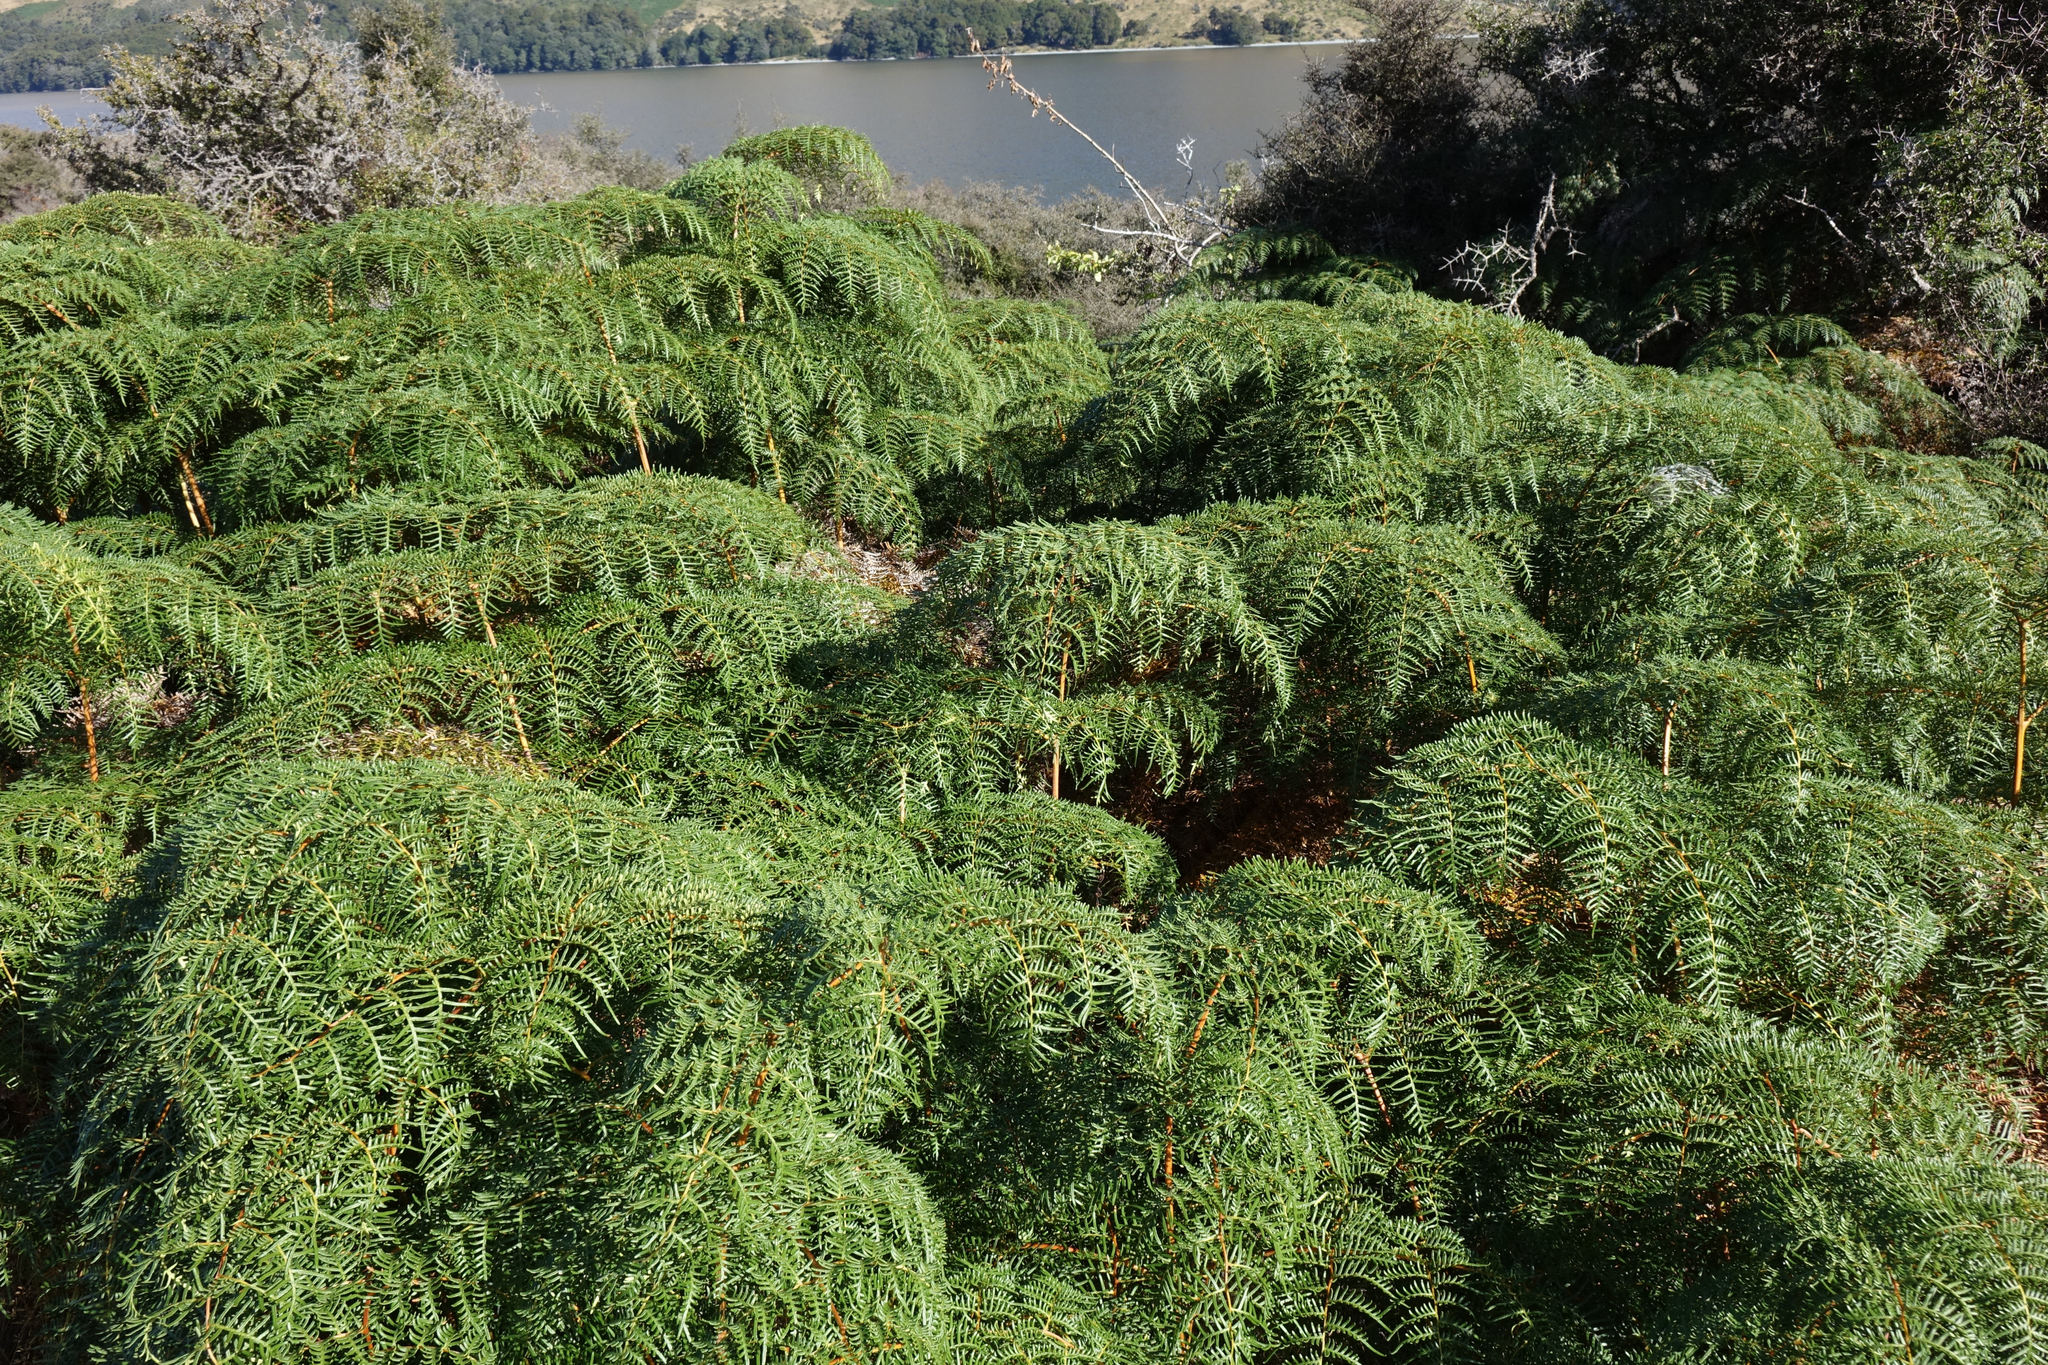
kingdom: Plantae
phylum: Tracheophyta
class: Polypodiopsida
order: Polypodiales
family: Dennstaedtiaceae
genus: Pteridium
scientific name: Pteridium esculentum
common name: Bracken fern
